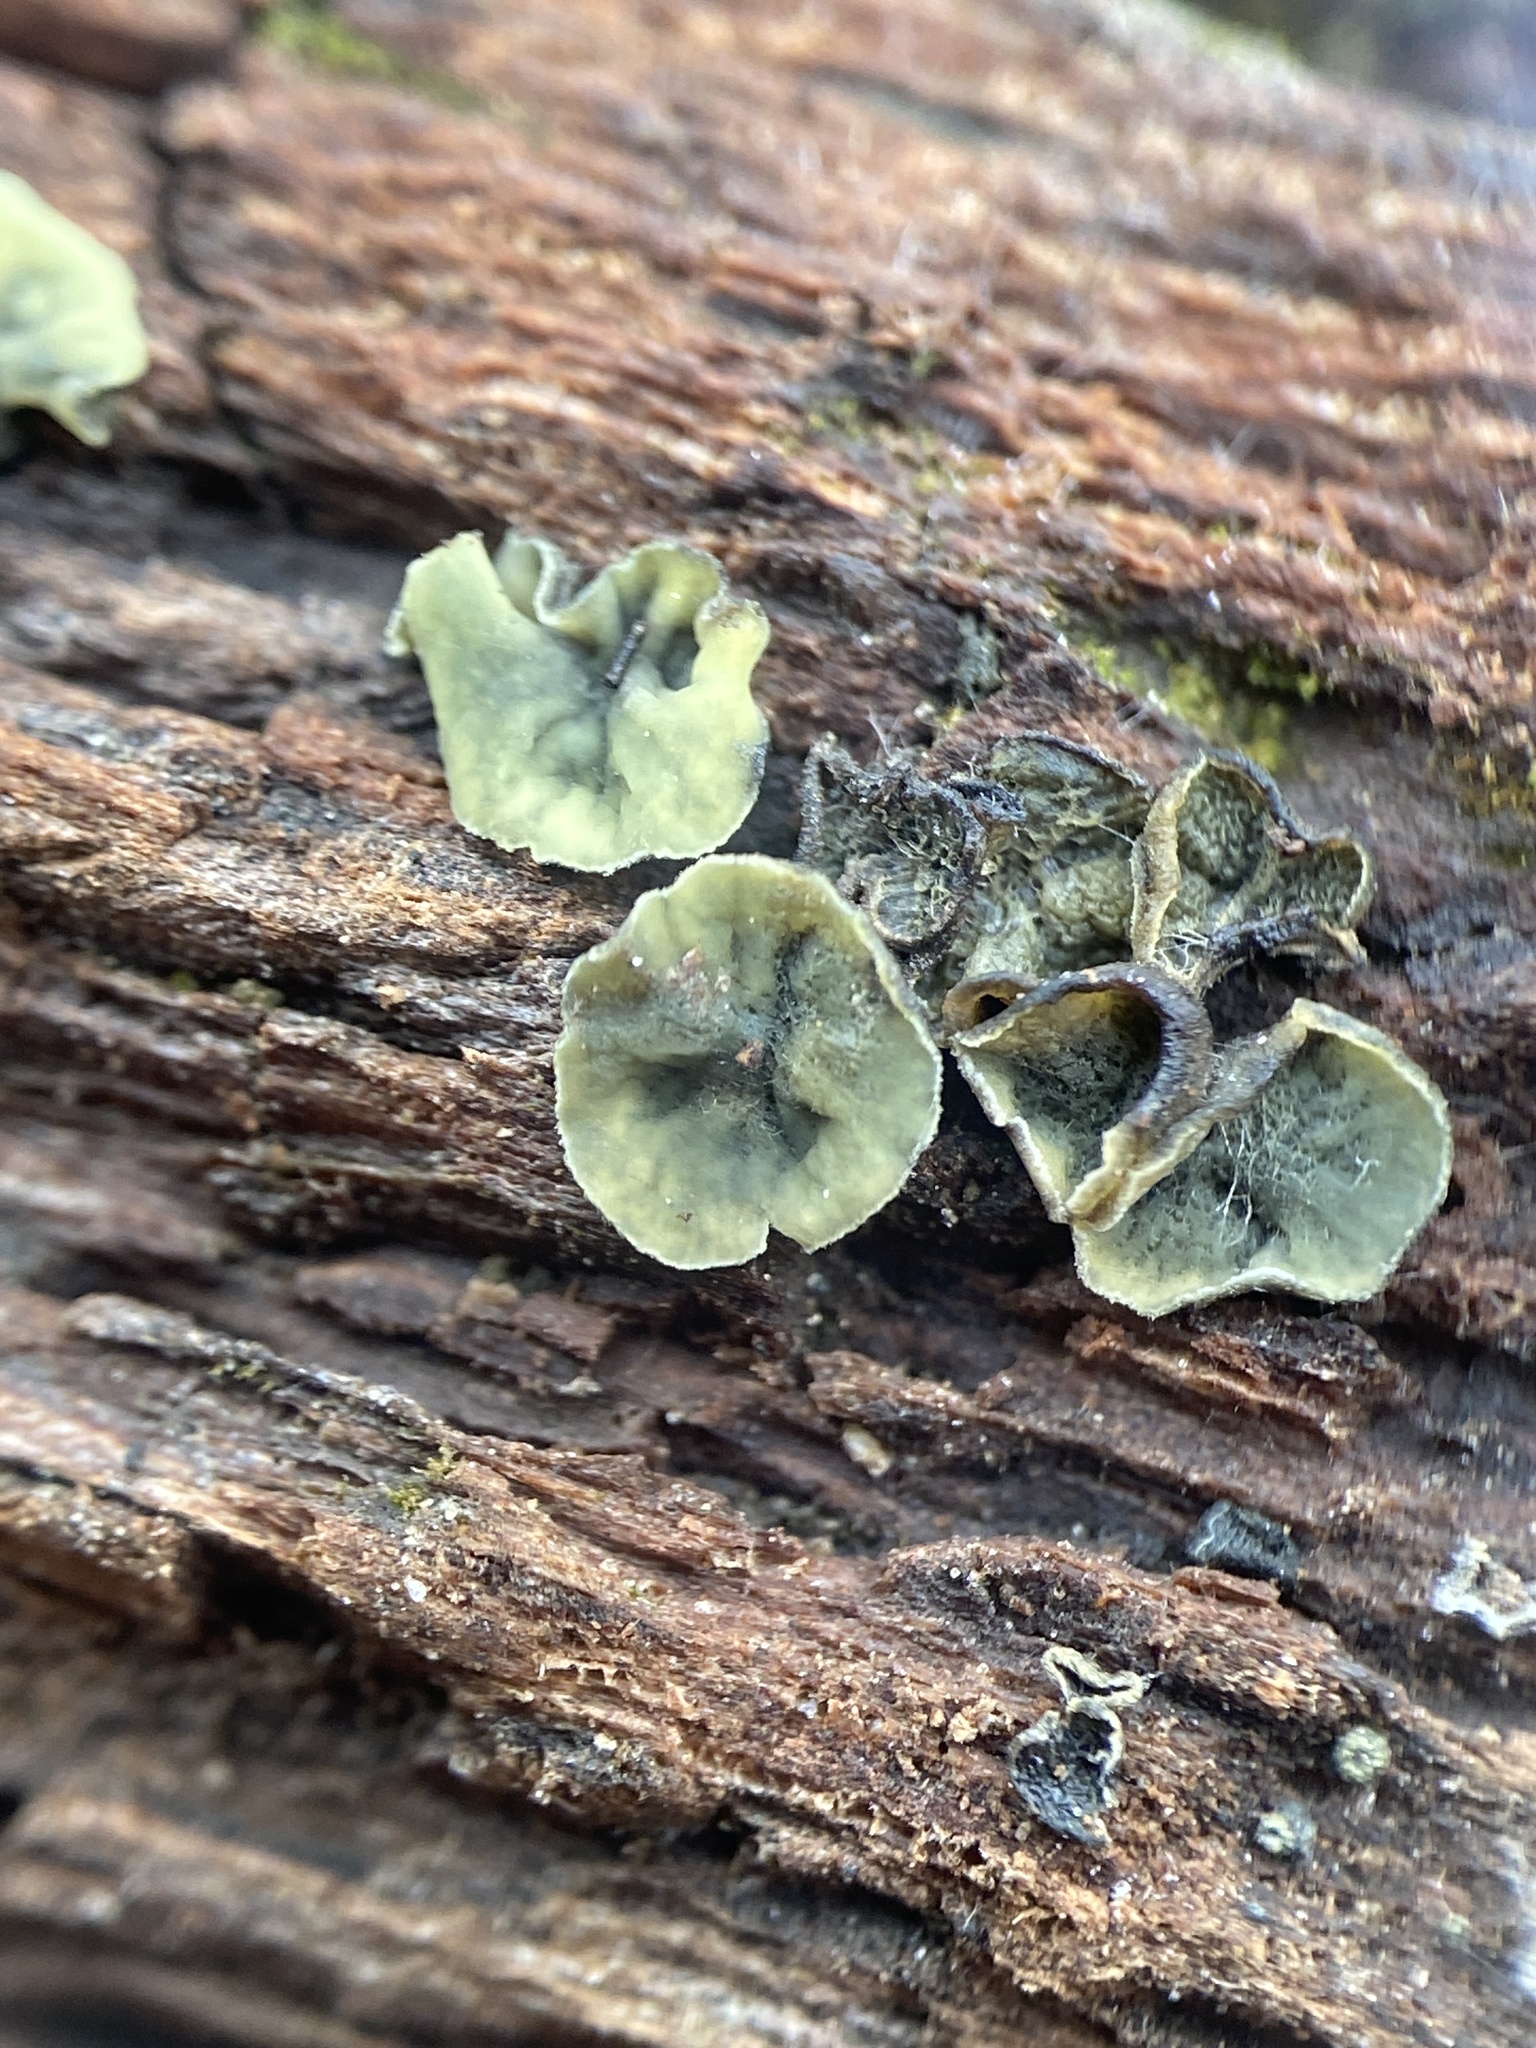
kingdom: Fungi
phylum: Ascomycota
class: Leotiomycetes
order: Helotiales
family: Chlorospleniaceae
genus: Chlorosplenium
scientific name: Chlorosplenium chlora
